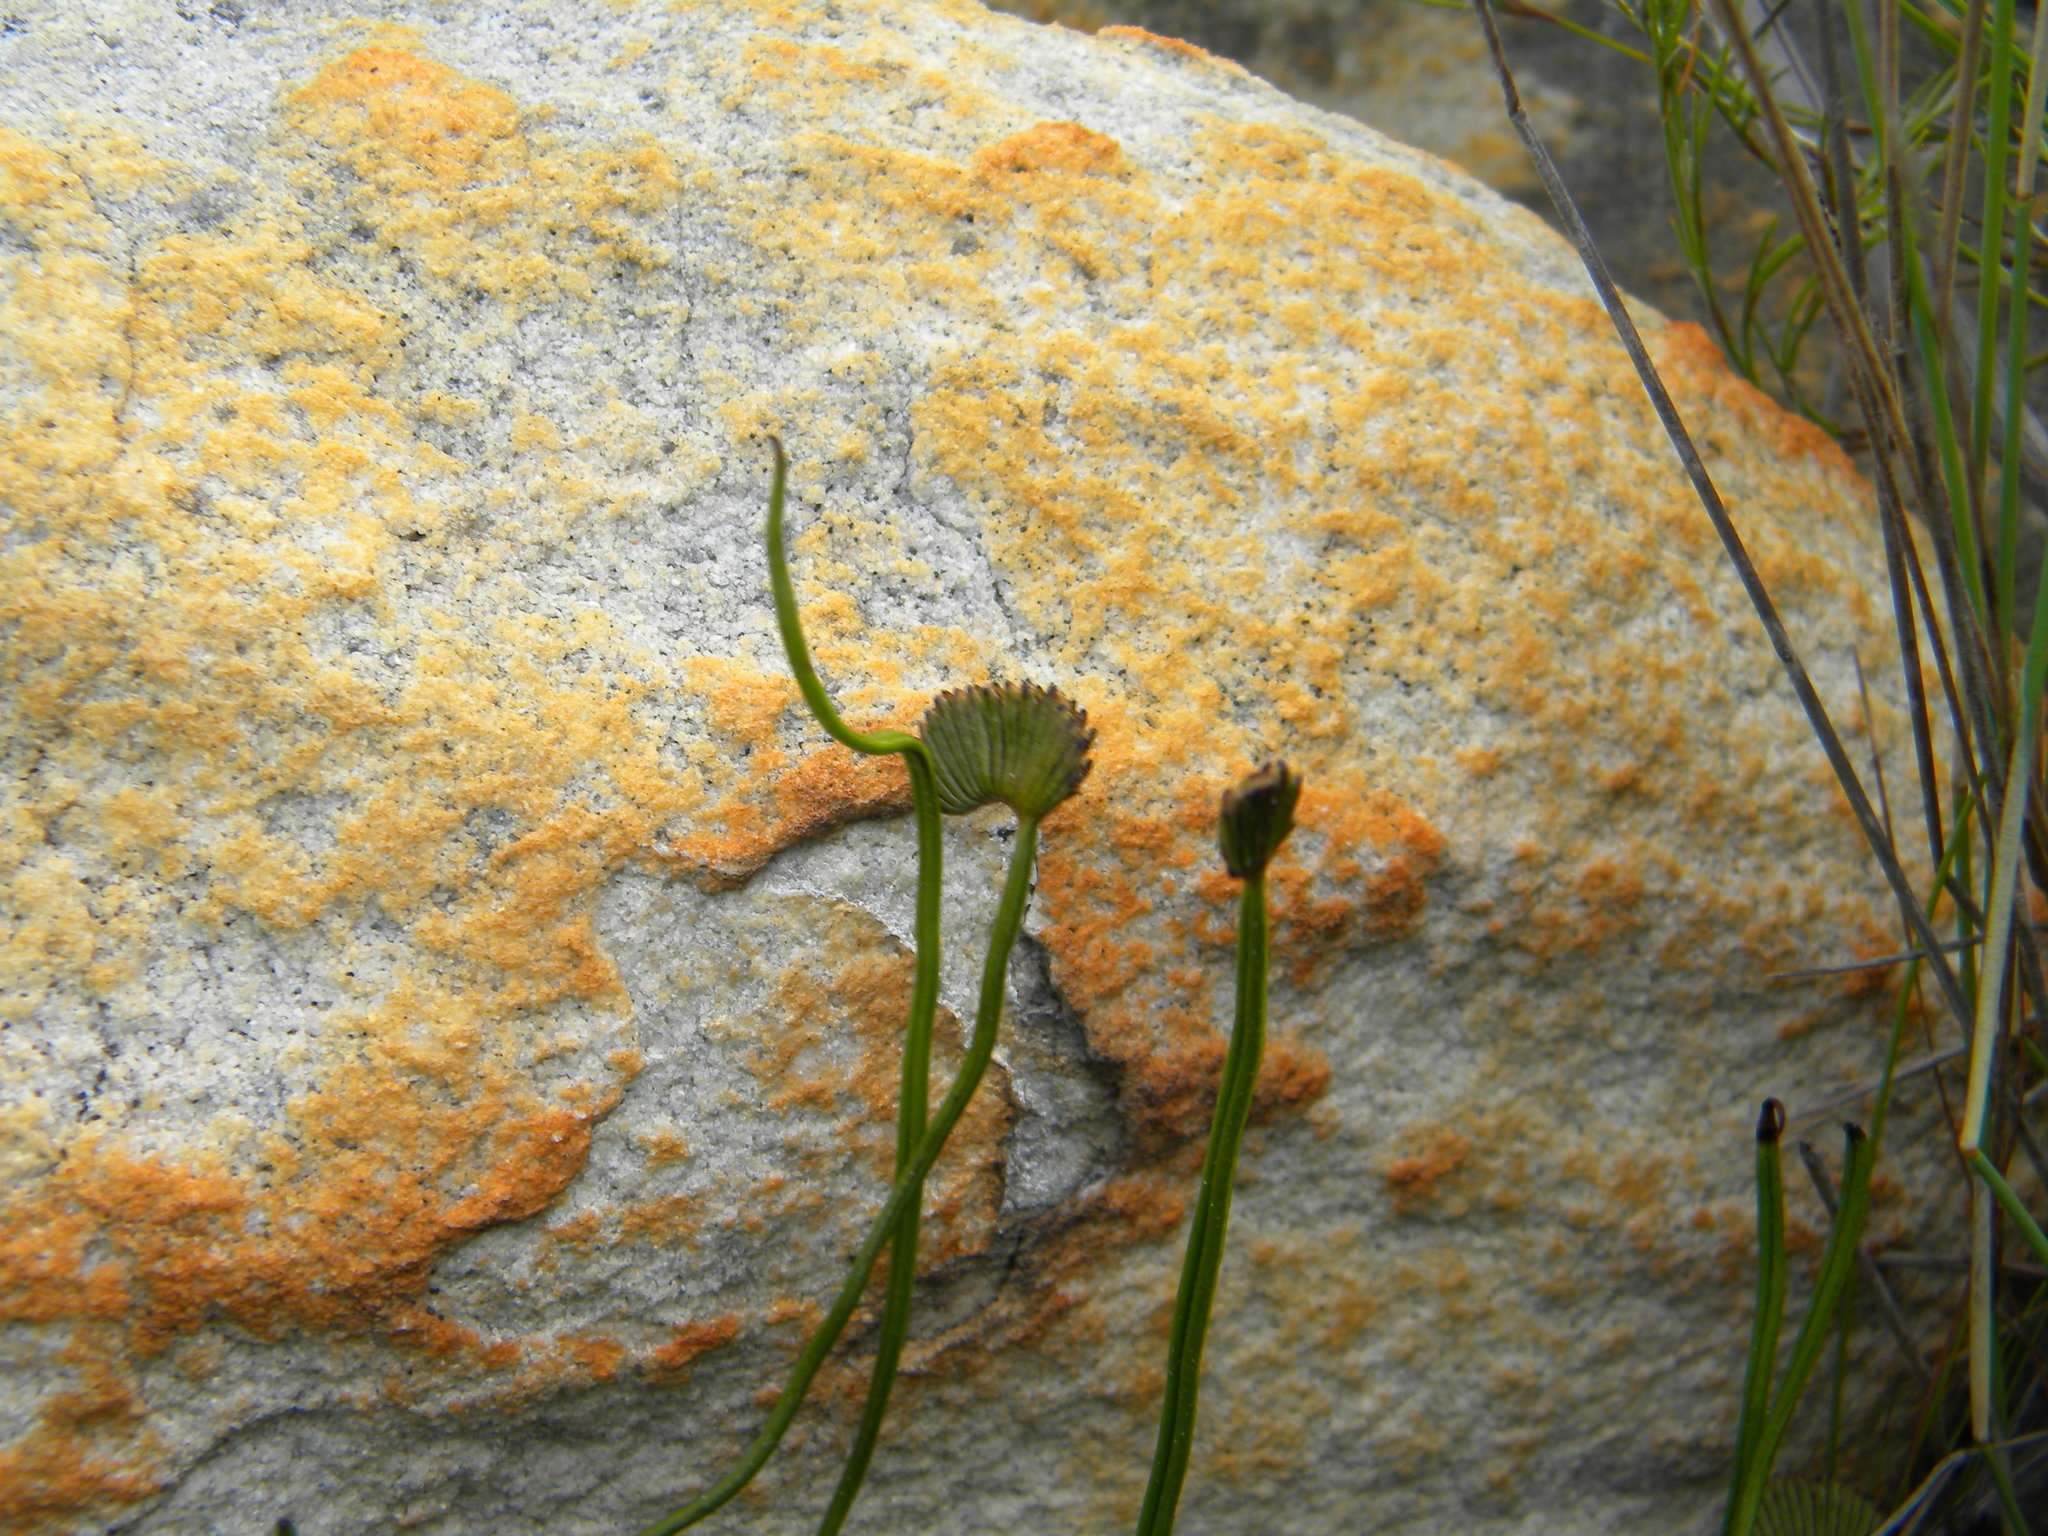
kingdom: Plantae
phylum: Tracheophyta
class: Polypodiopsida
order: Schizaeales
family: Schizaeaceae
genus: Schizaea
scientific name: Schizaea pectinata
